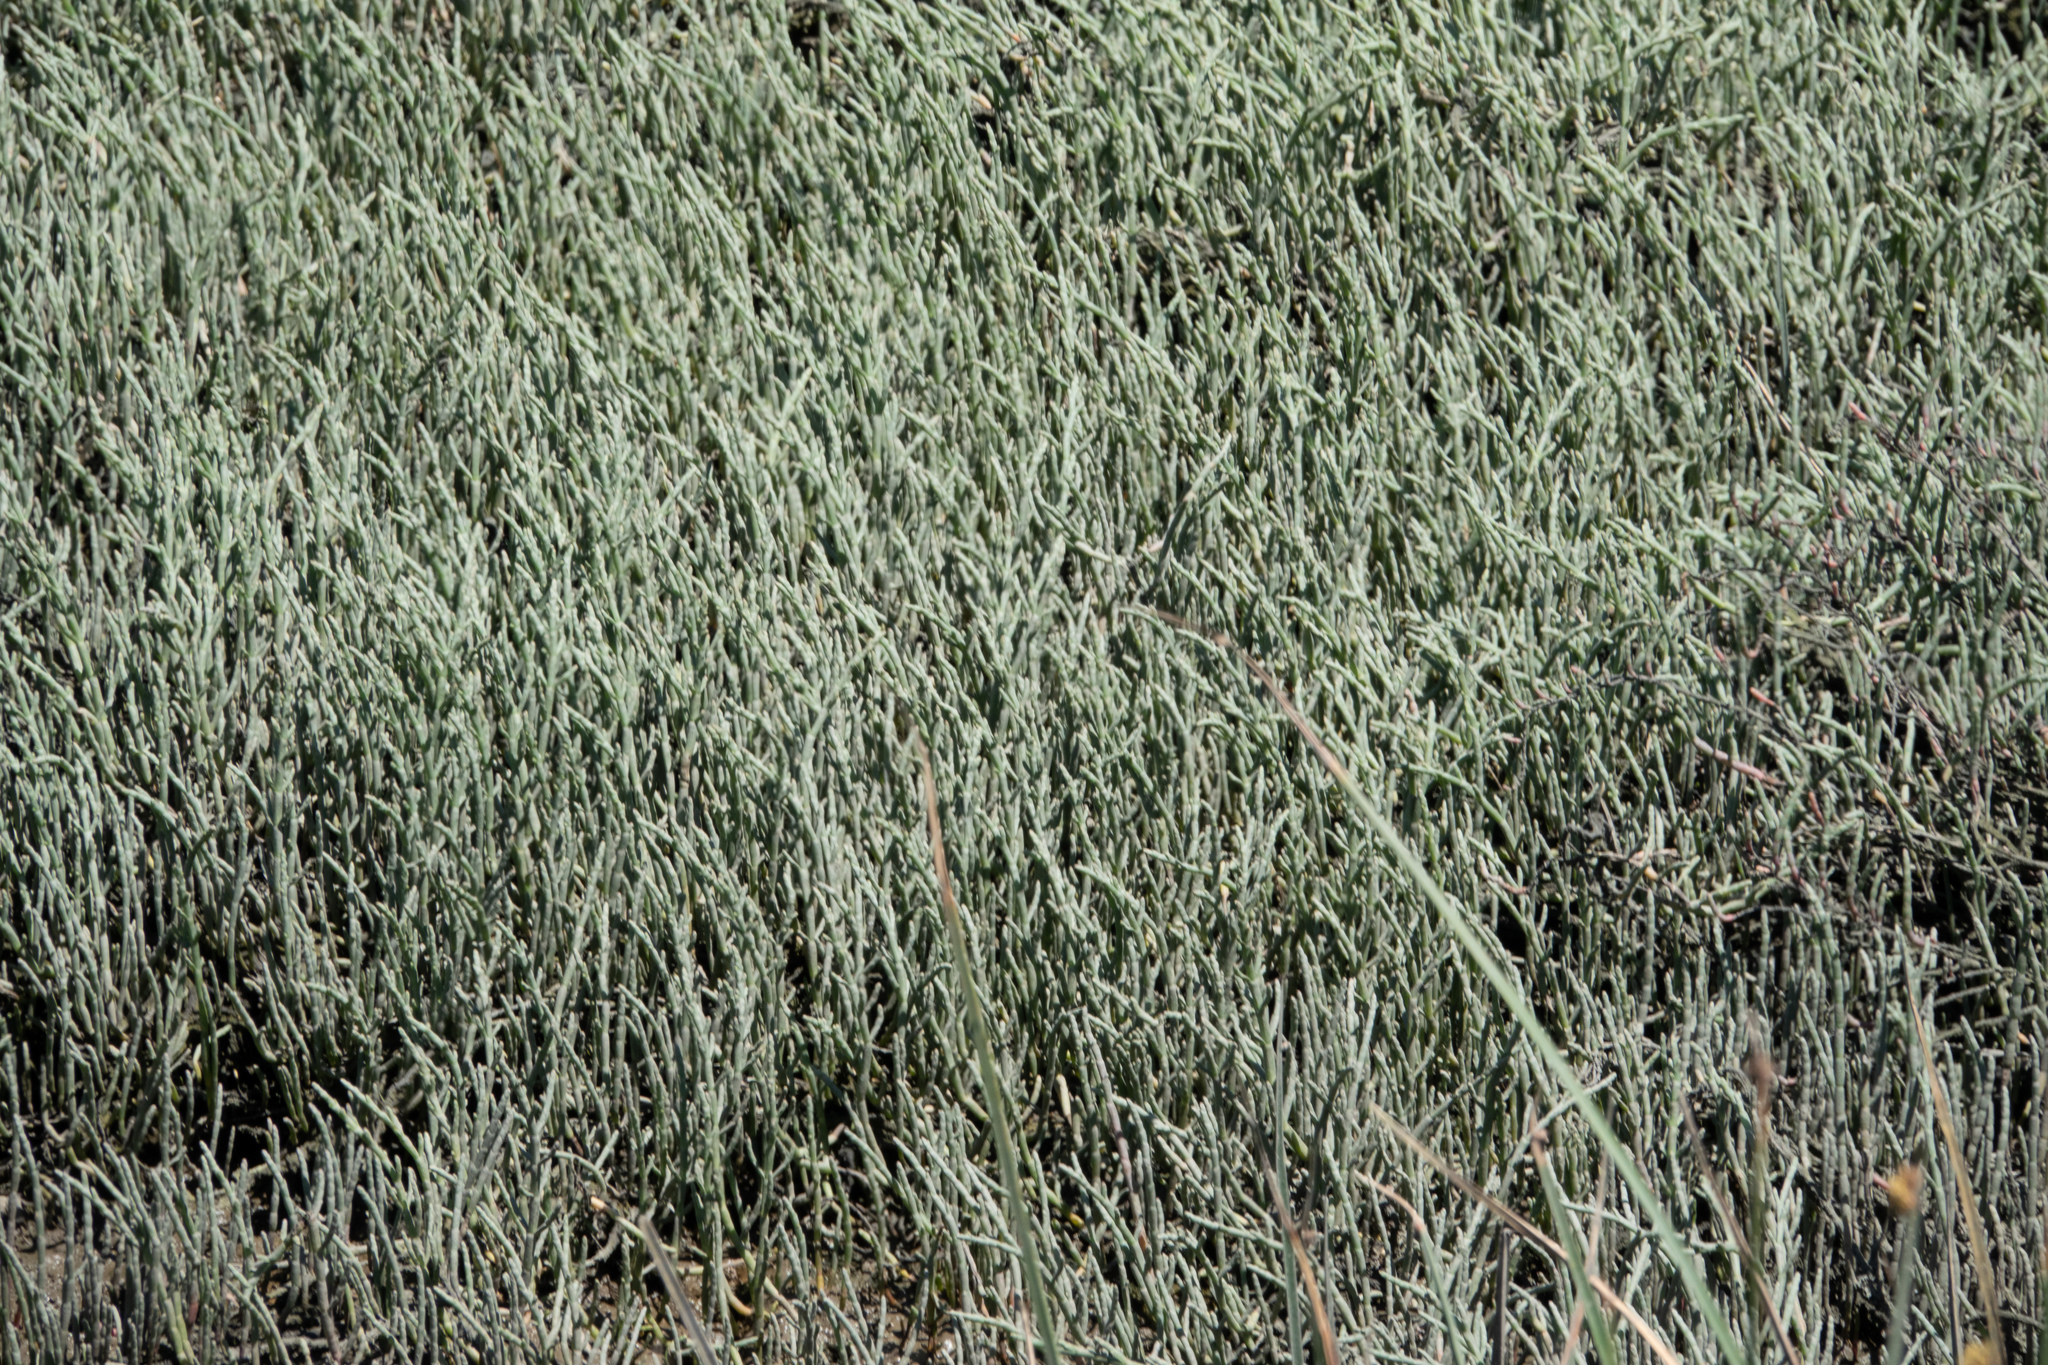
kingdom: Plantae
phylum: Tracheophyta
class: Magnoliopsida
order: Caryophyllales
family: Amaranthaceae
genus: Salicornia
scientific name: Salicornia pacifica
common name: Pacific glasswort
